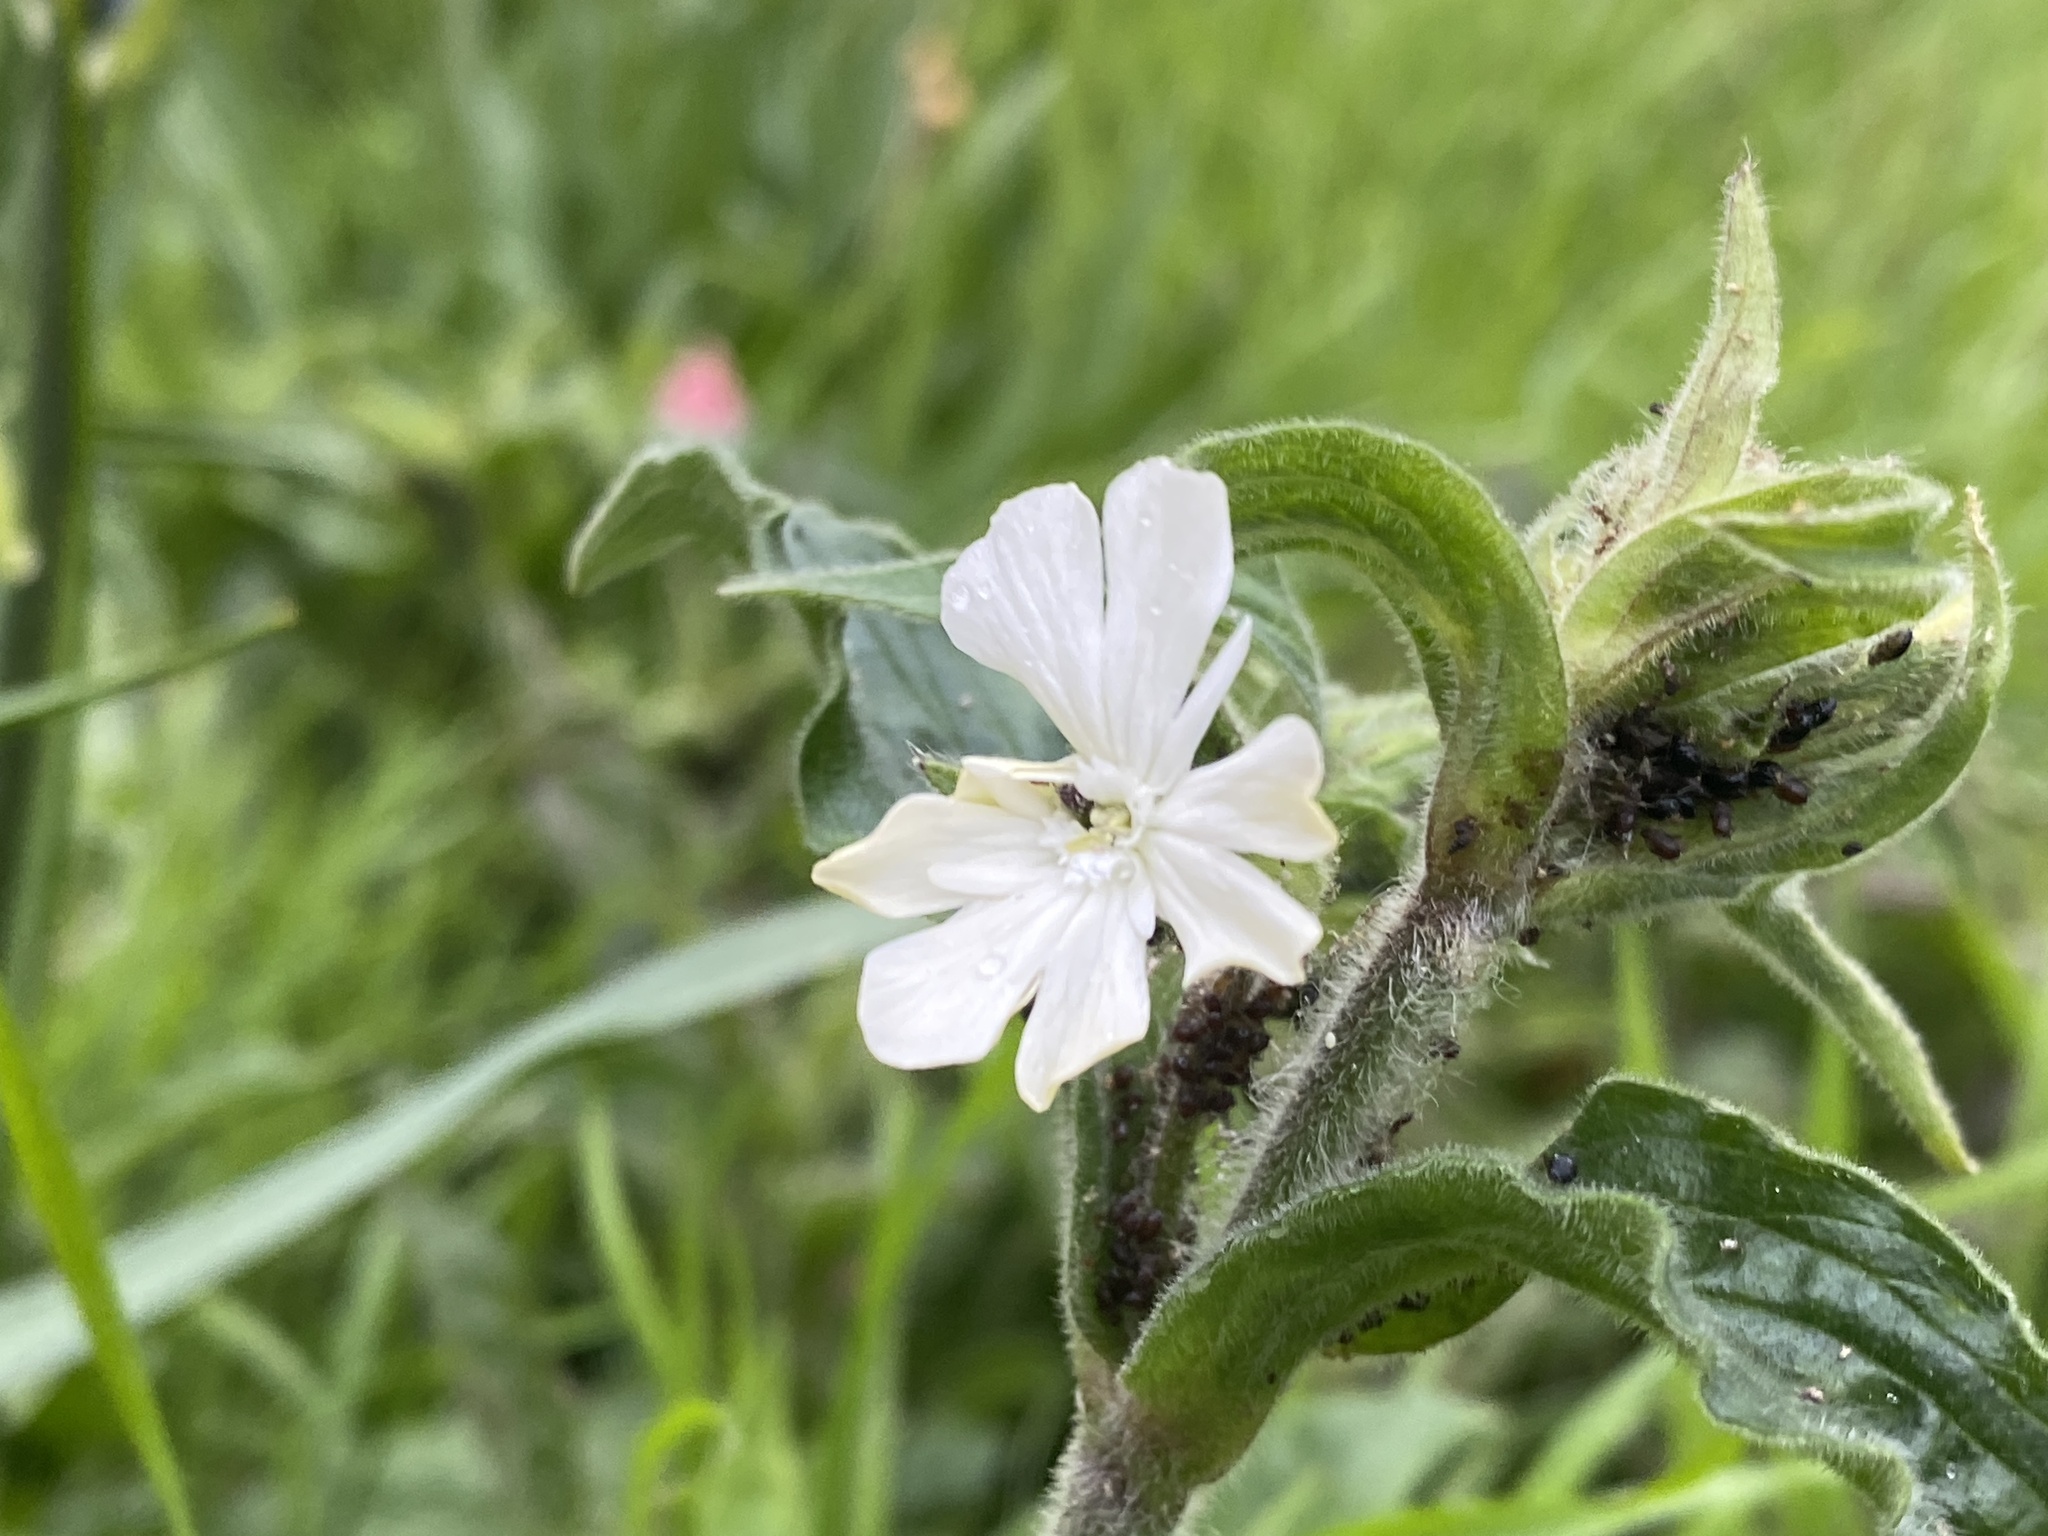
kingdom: Plantae
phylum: Tracheophyta
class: Magnoliopsida
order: Caryophyllales
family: Caryophyllaceae
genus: Silene
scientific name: Silene latifolia
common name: White campion
